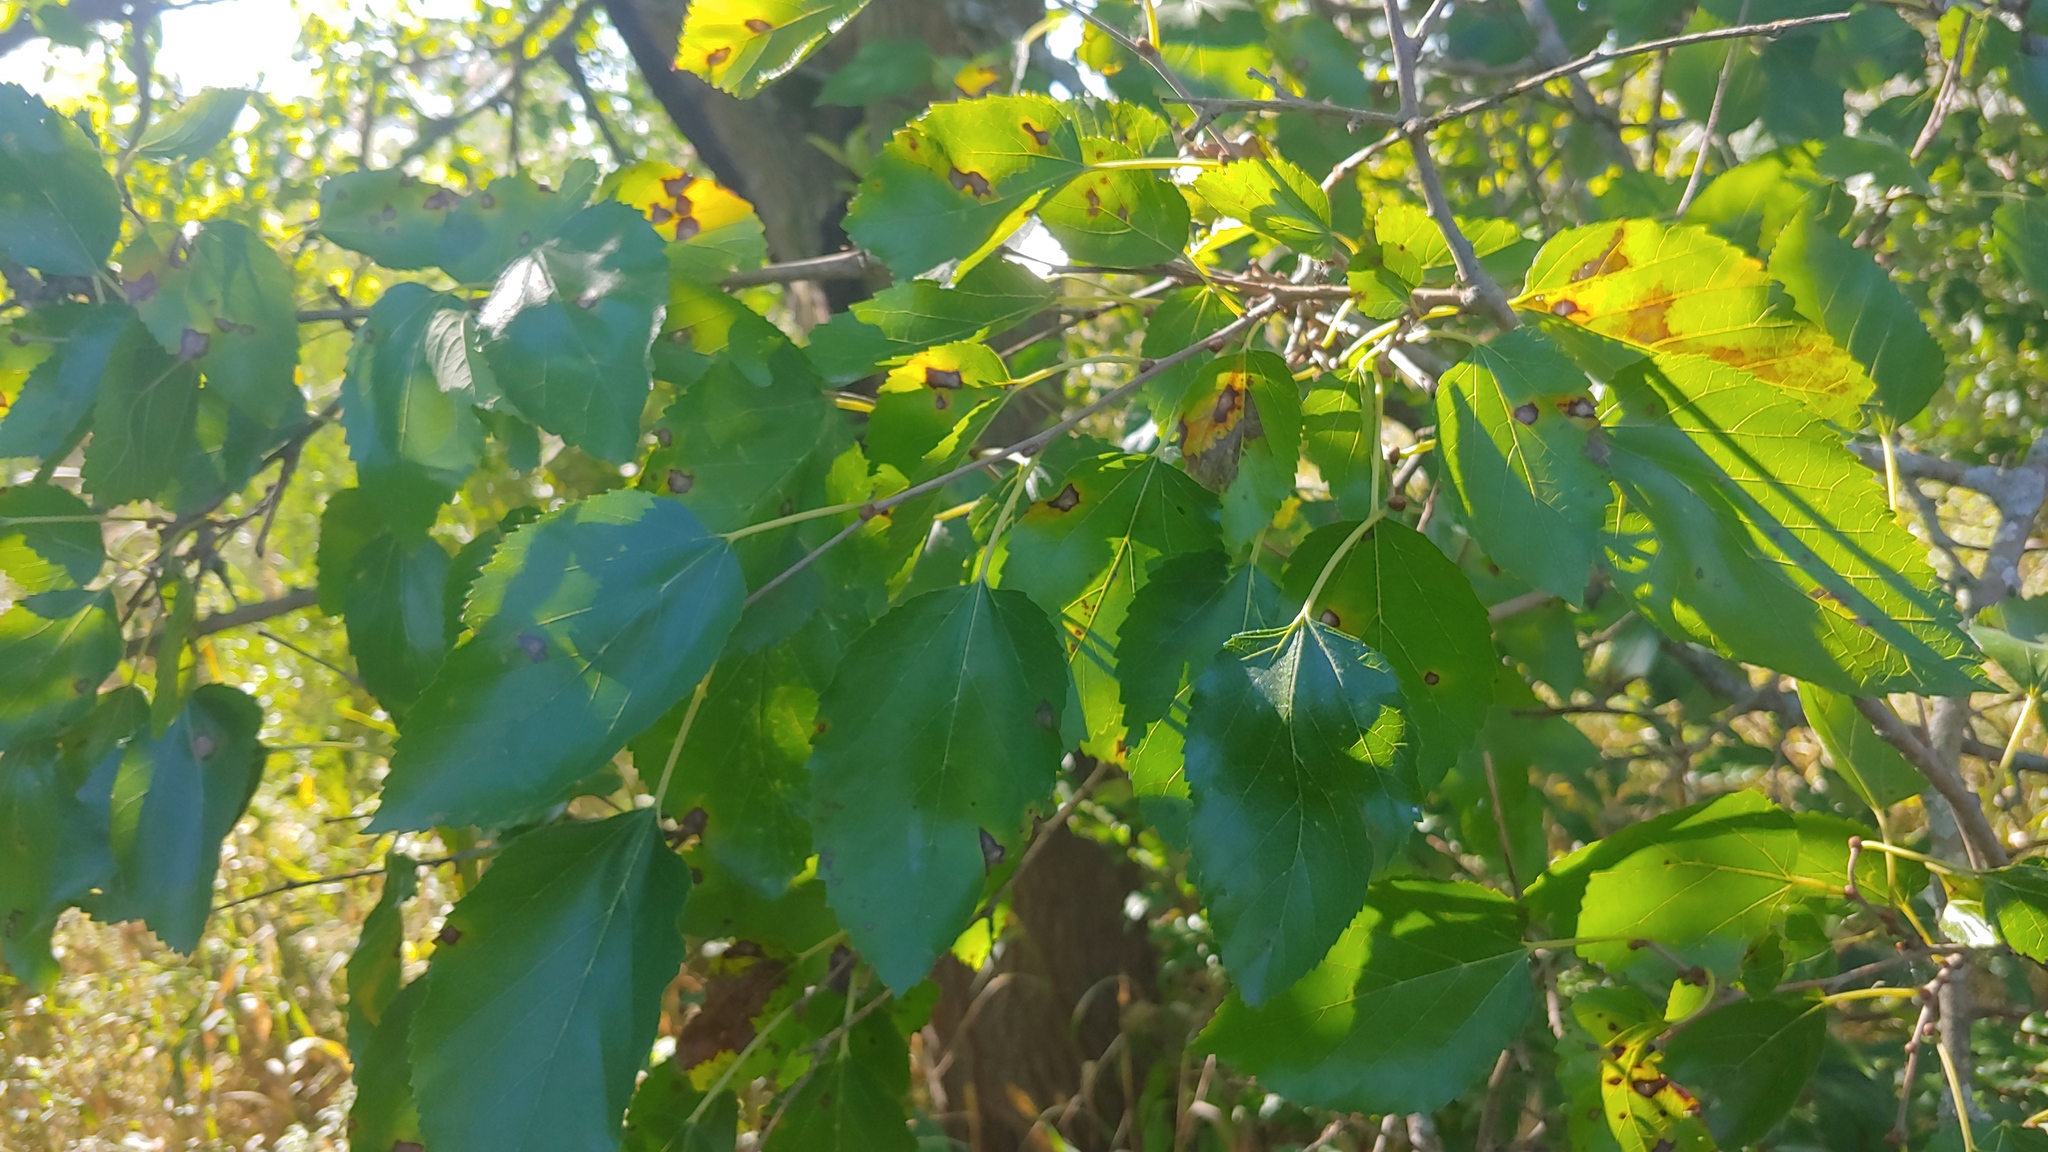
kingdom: Plantae
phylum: Tracheophyta
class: Magnoliopsida
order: Rosales
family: Moraceae
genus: Morus
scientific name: Morus rubra
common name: Red mulberry
